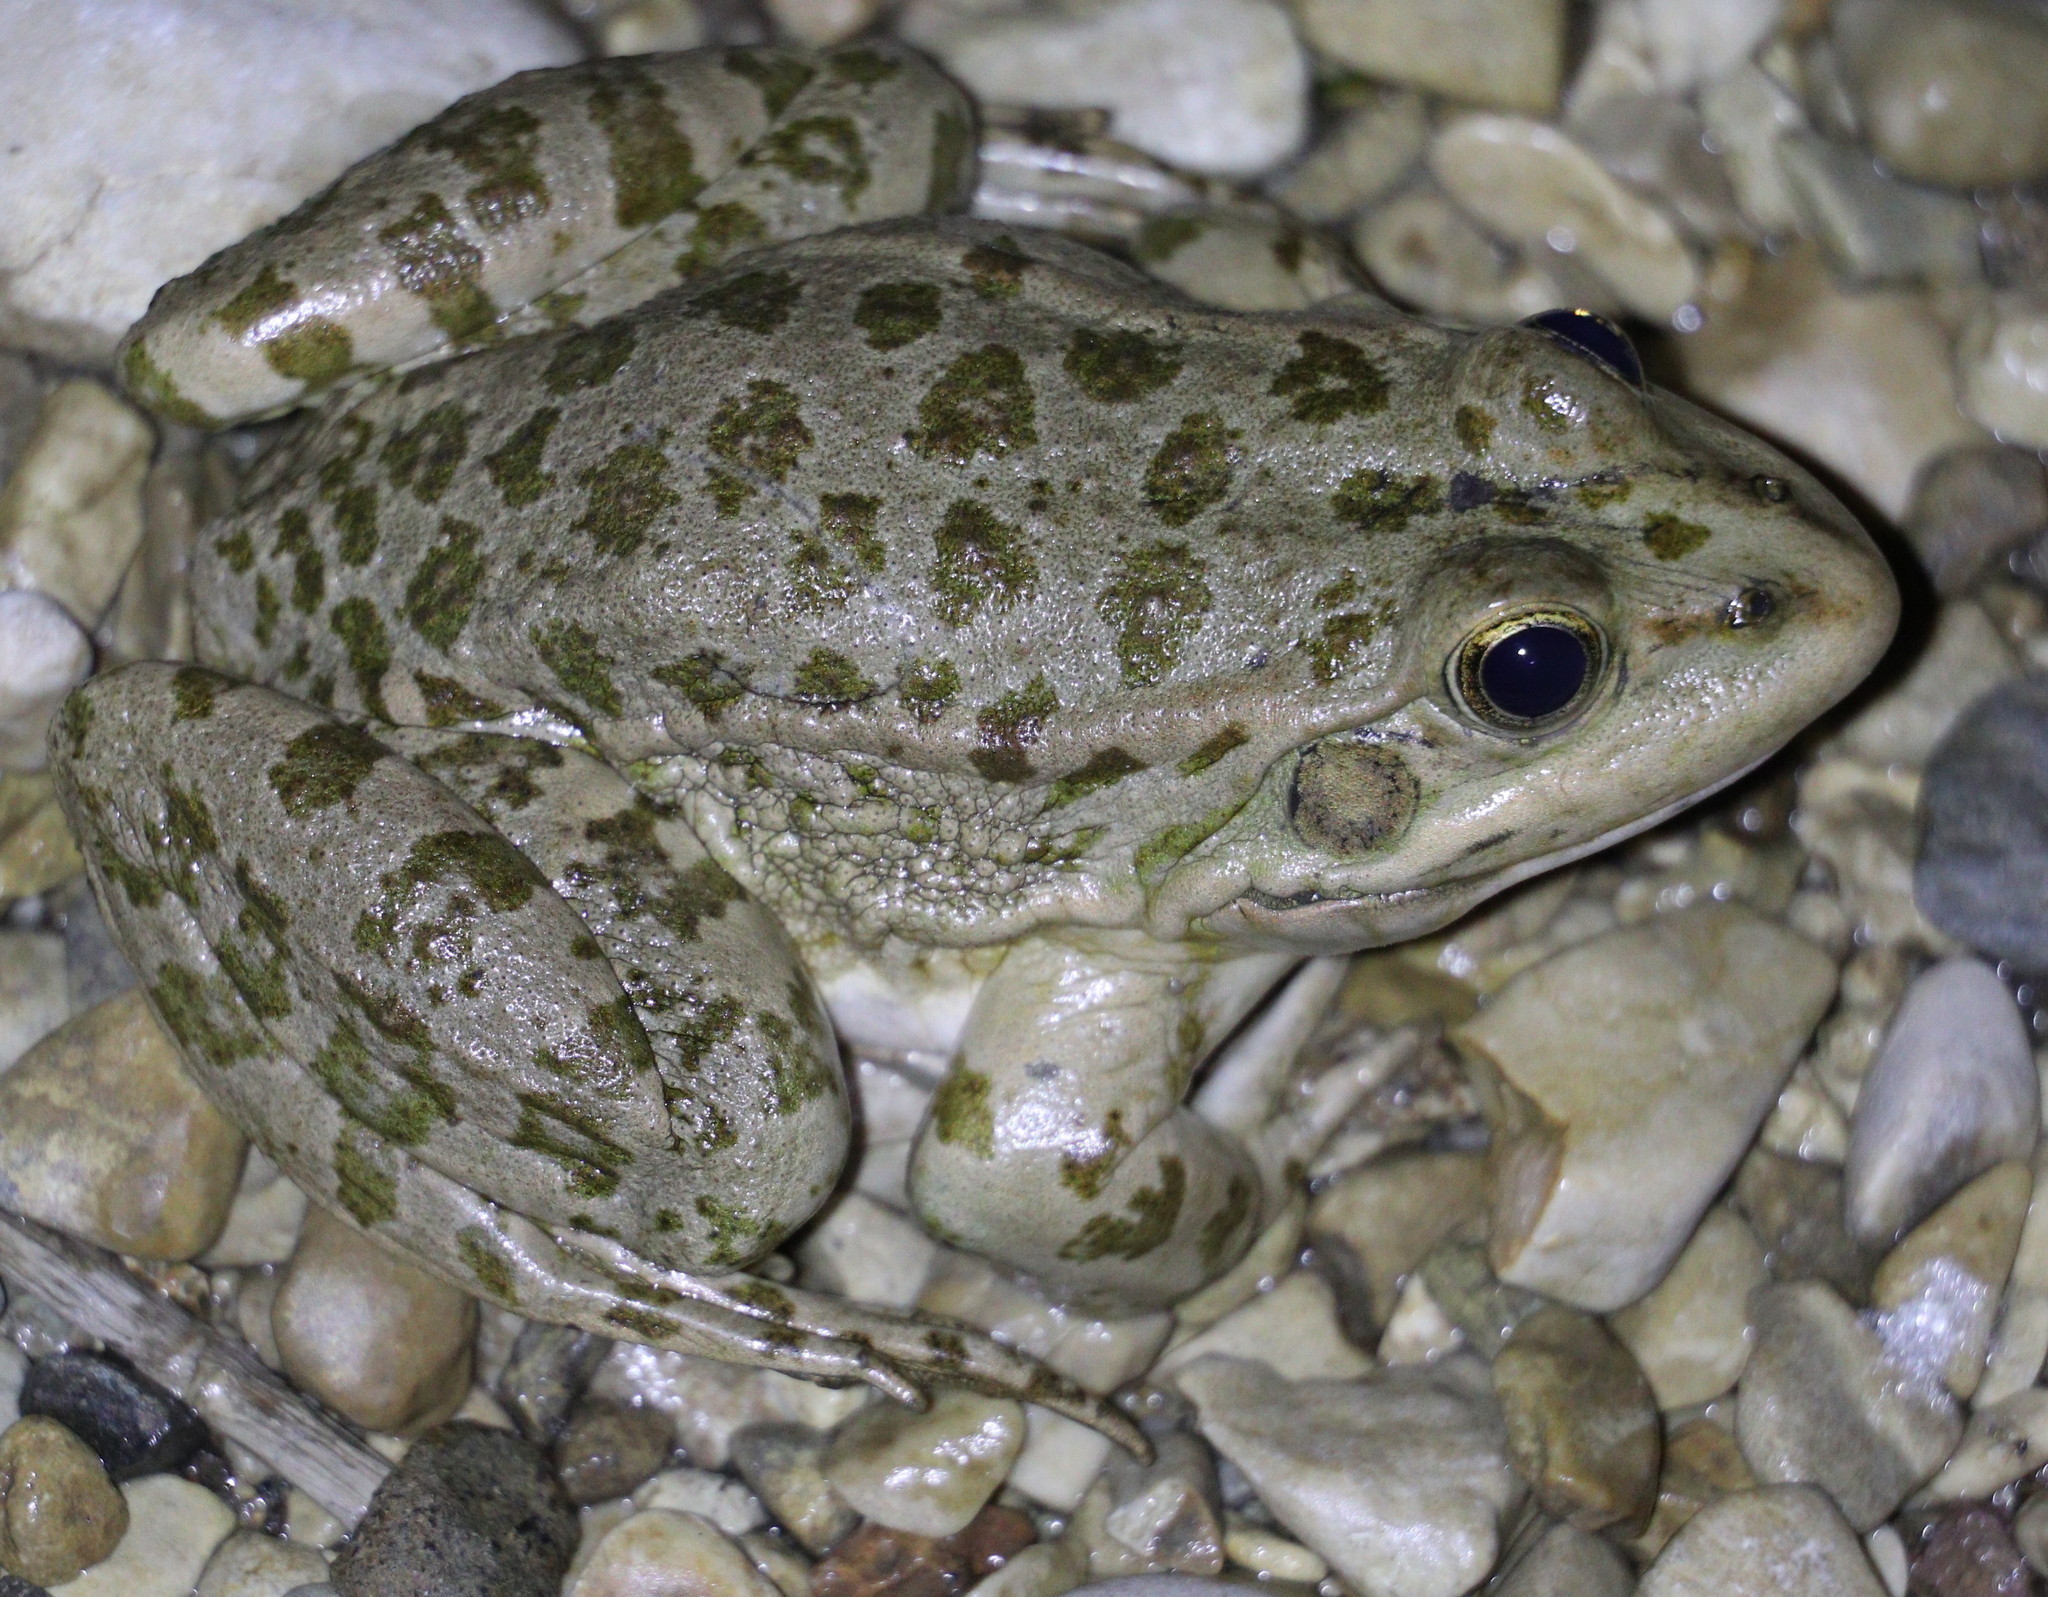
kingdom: Animalia
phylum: Chordata
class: Amphibia
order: Anura
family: Ranidae
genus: Pelophylax
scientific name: Pelophylax ridibundus
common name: Marsh frog
